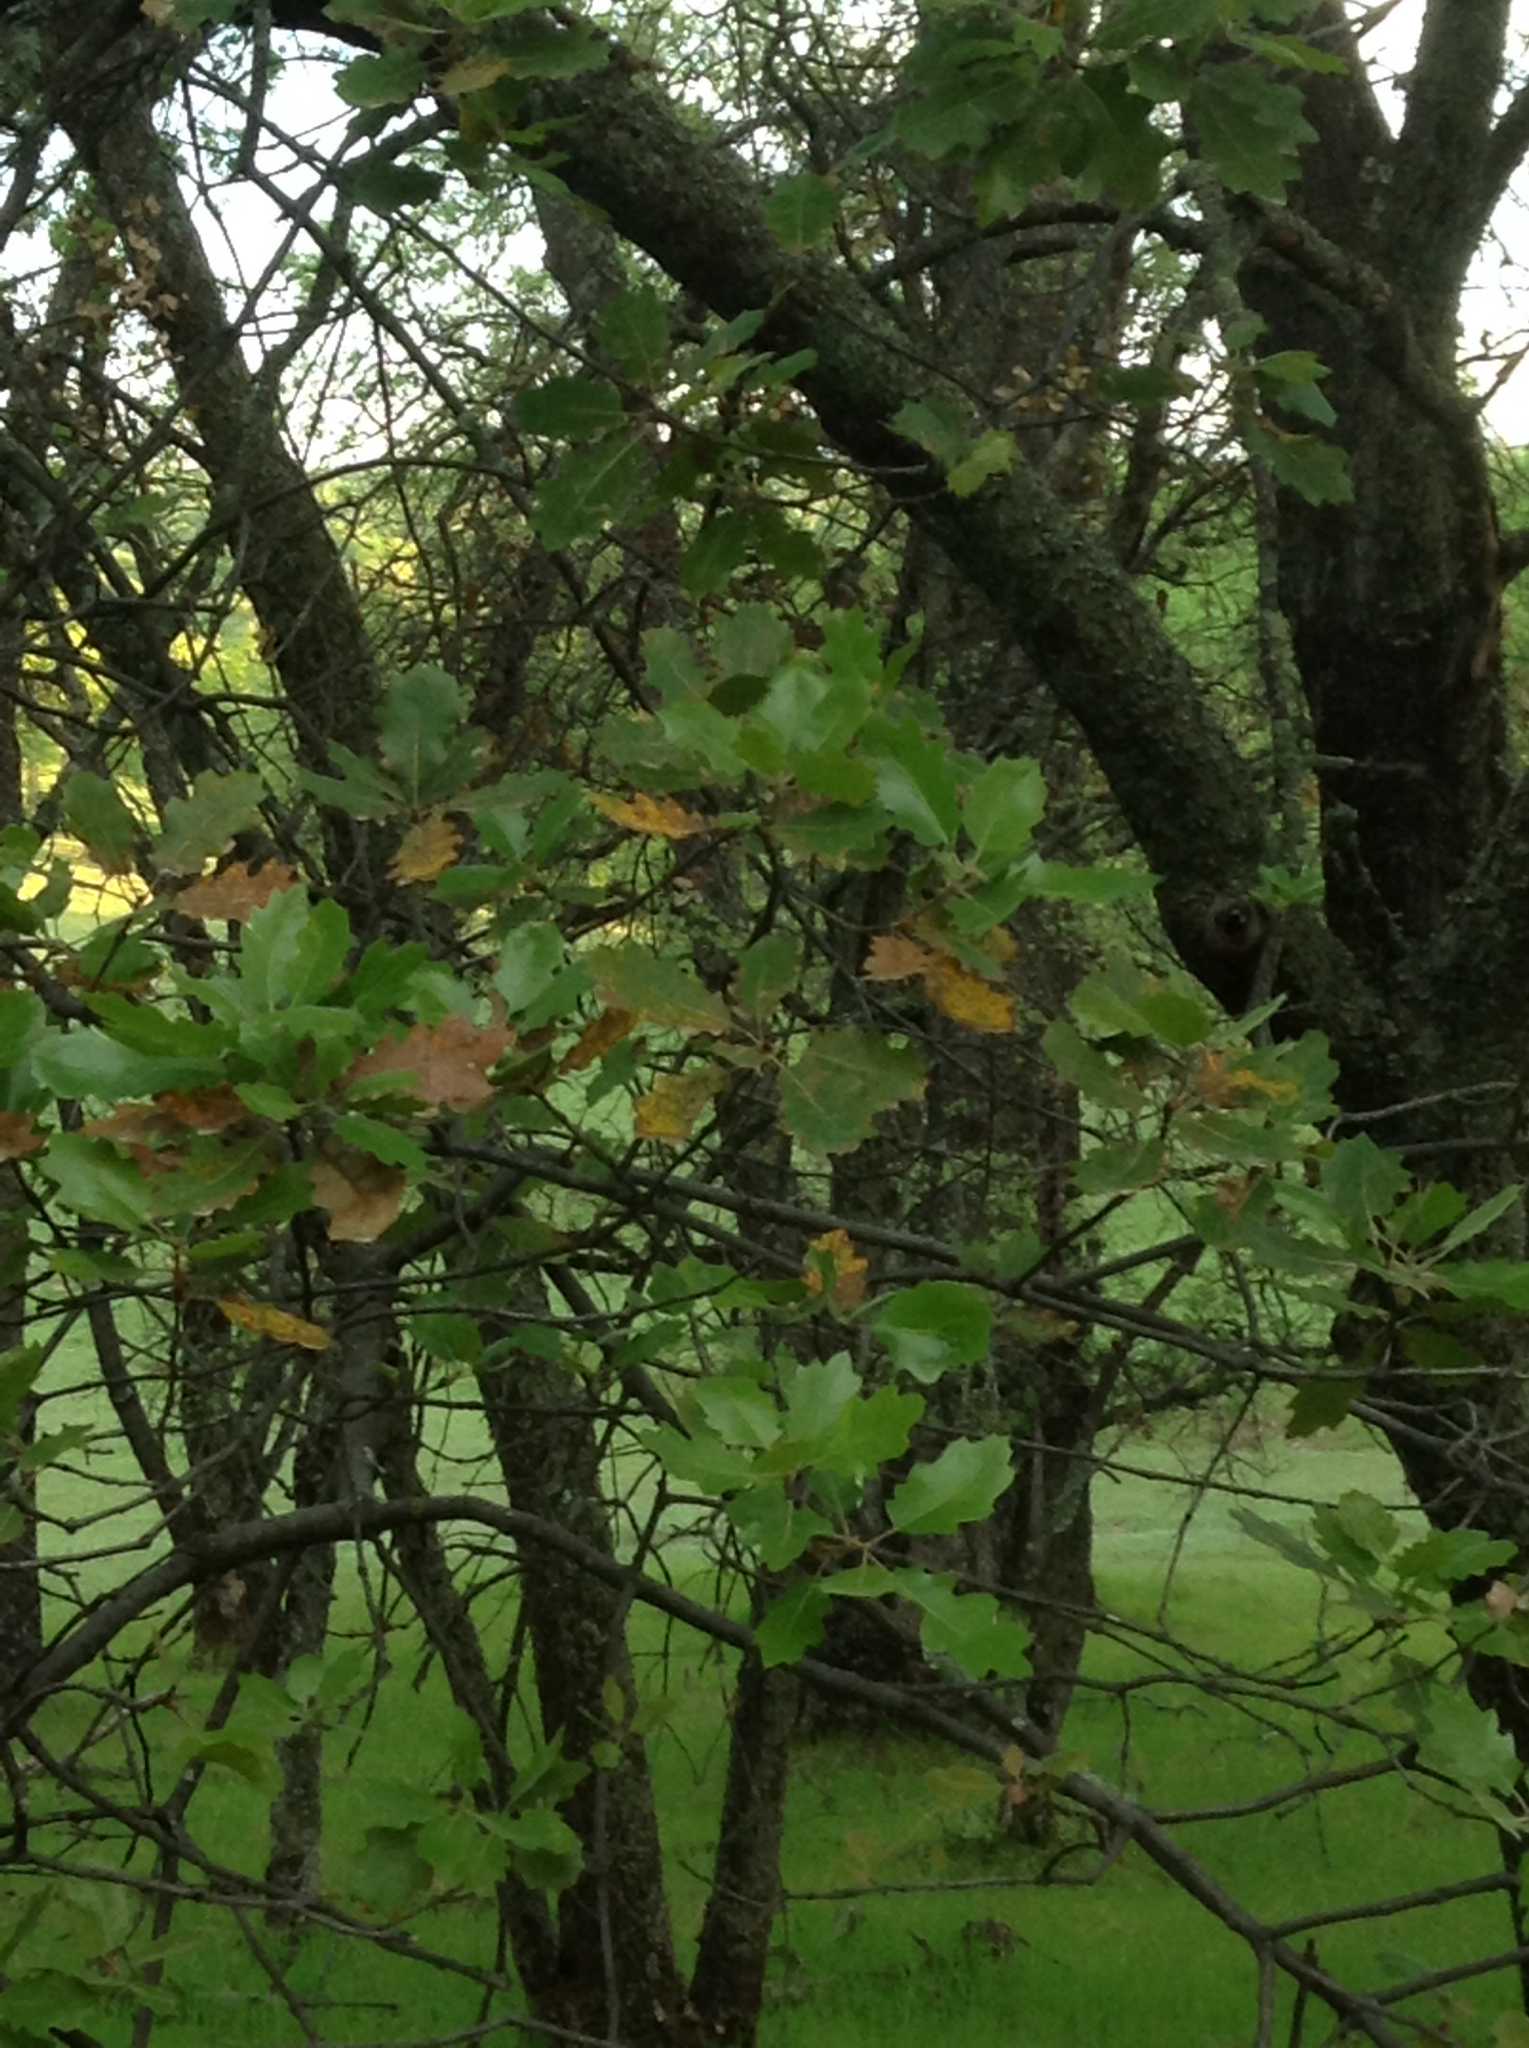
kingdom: Plantae
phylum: Tracheophyta
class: Magnoliopsida
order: Fagales
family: Fagaceae
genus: Quercus
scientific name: Quercus morehus
